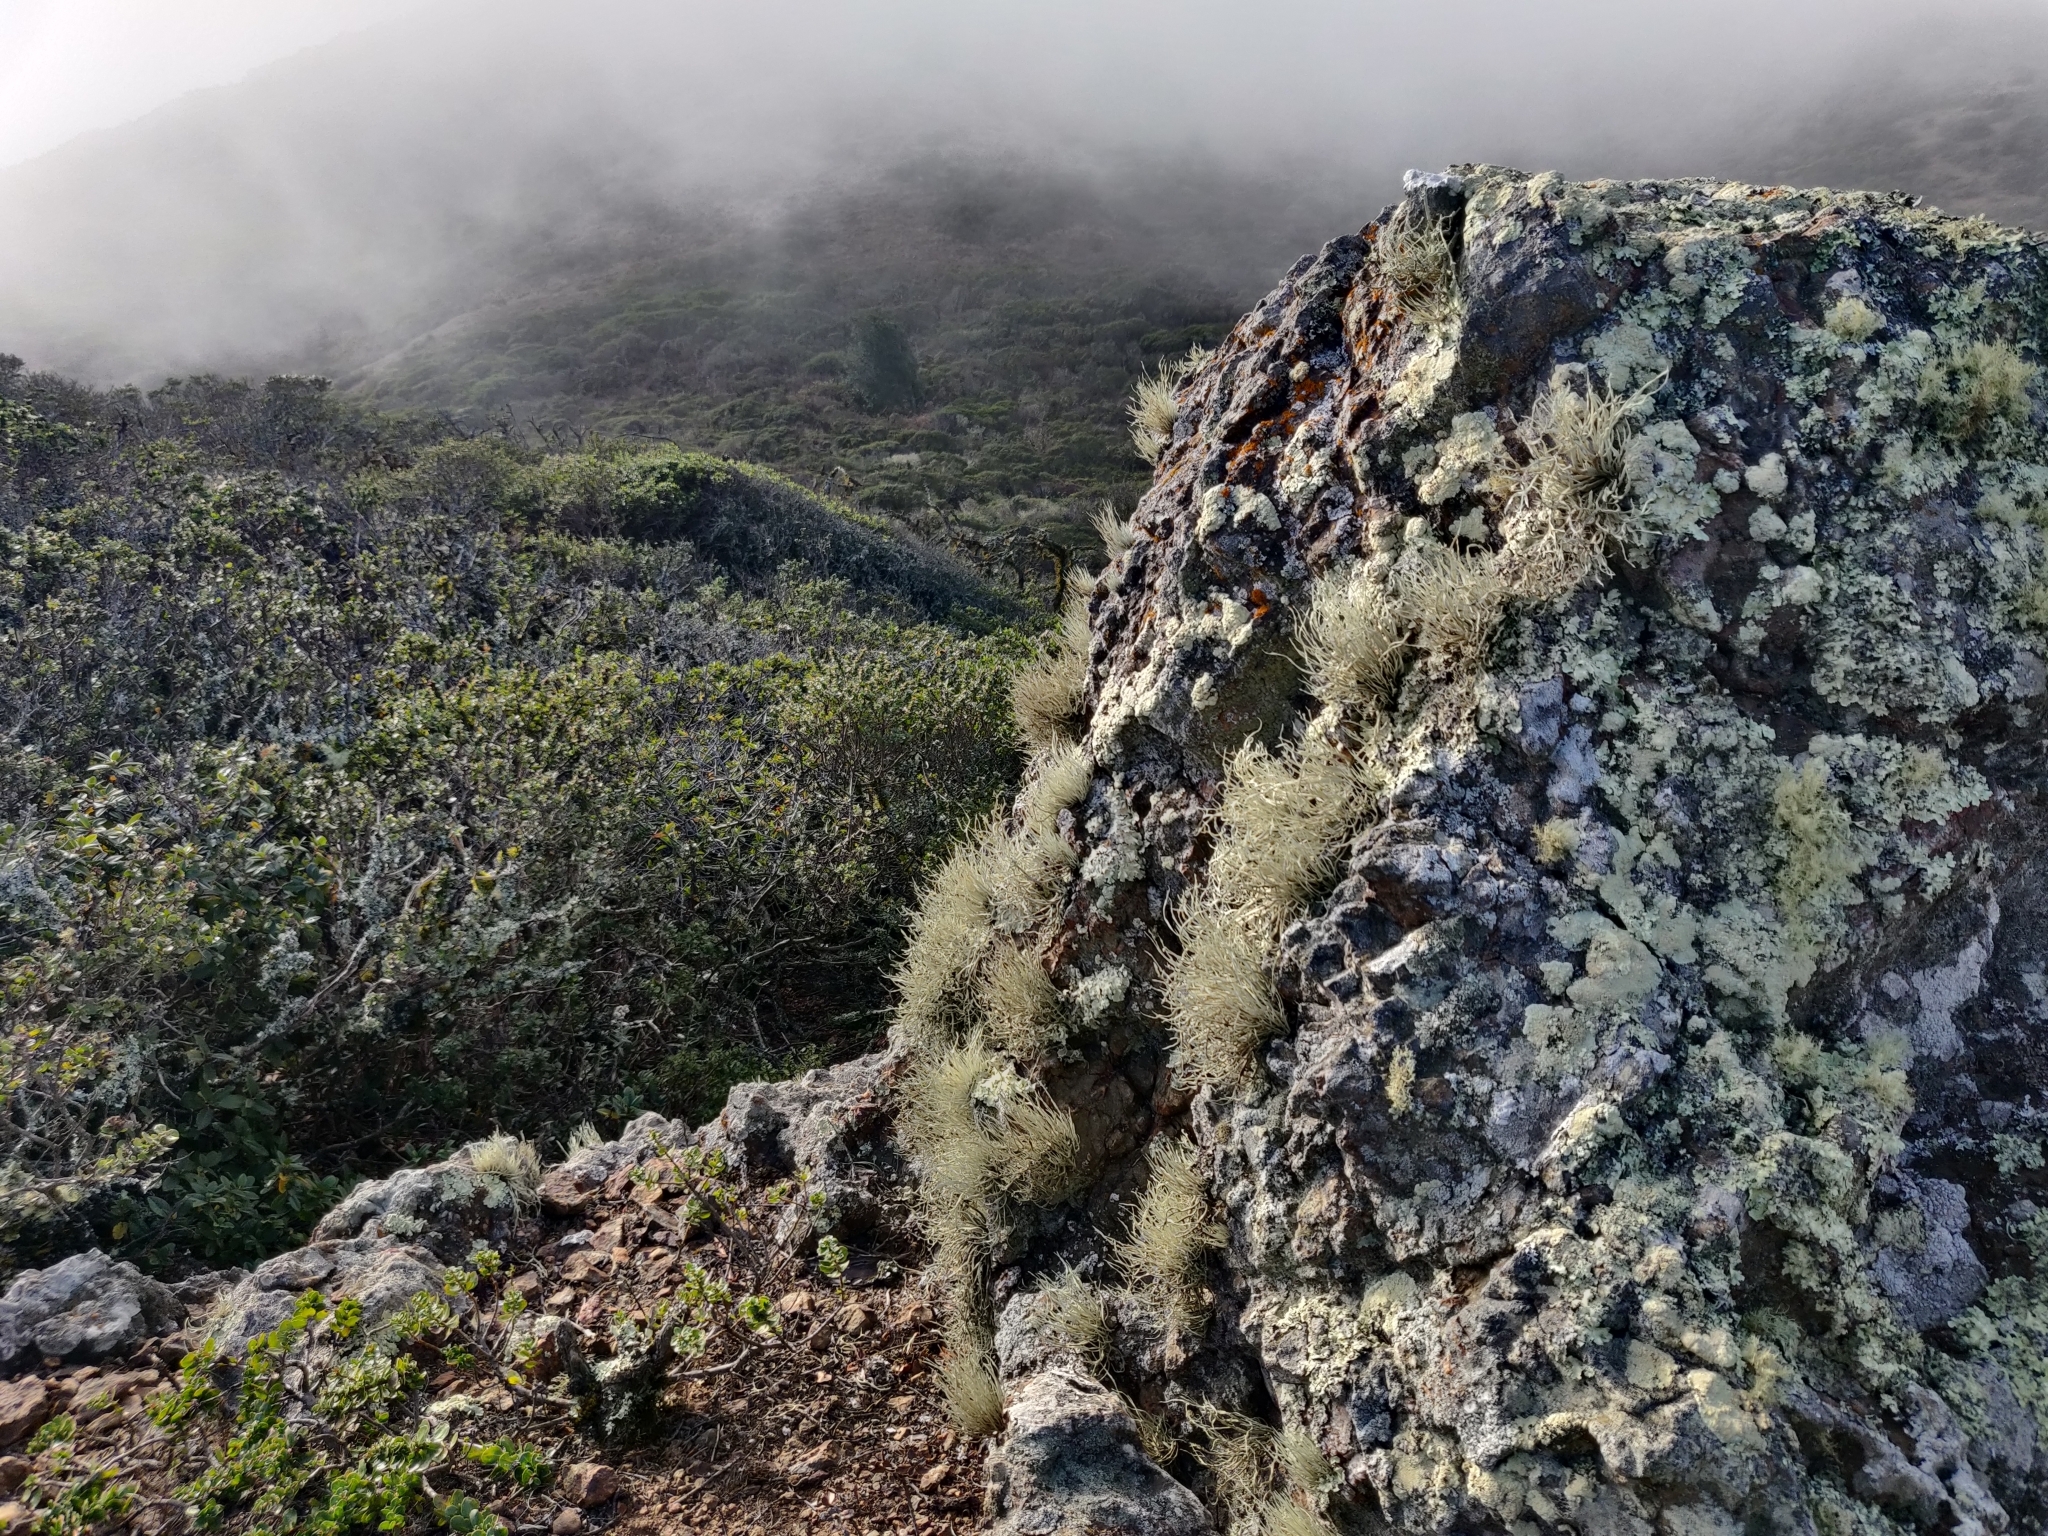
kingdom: Fungi
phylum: Ascomycota
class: Lecanoromycetes
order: Lecanorales
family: Ramalinaceae
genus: Niebla
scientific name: Niebla homalea
